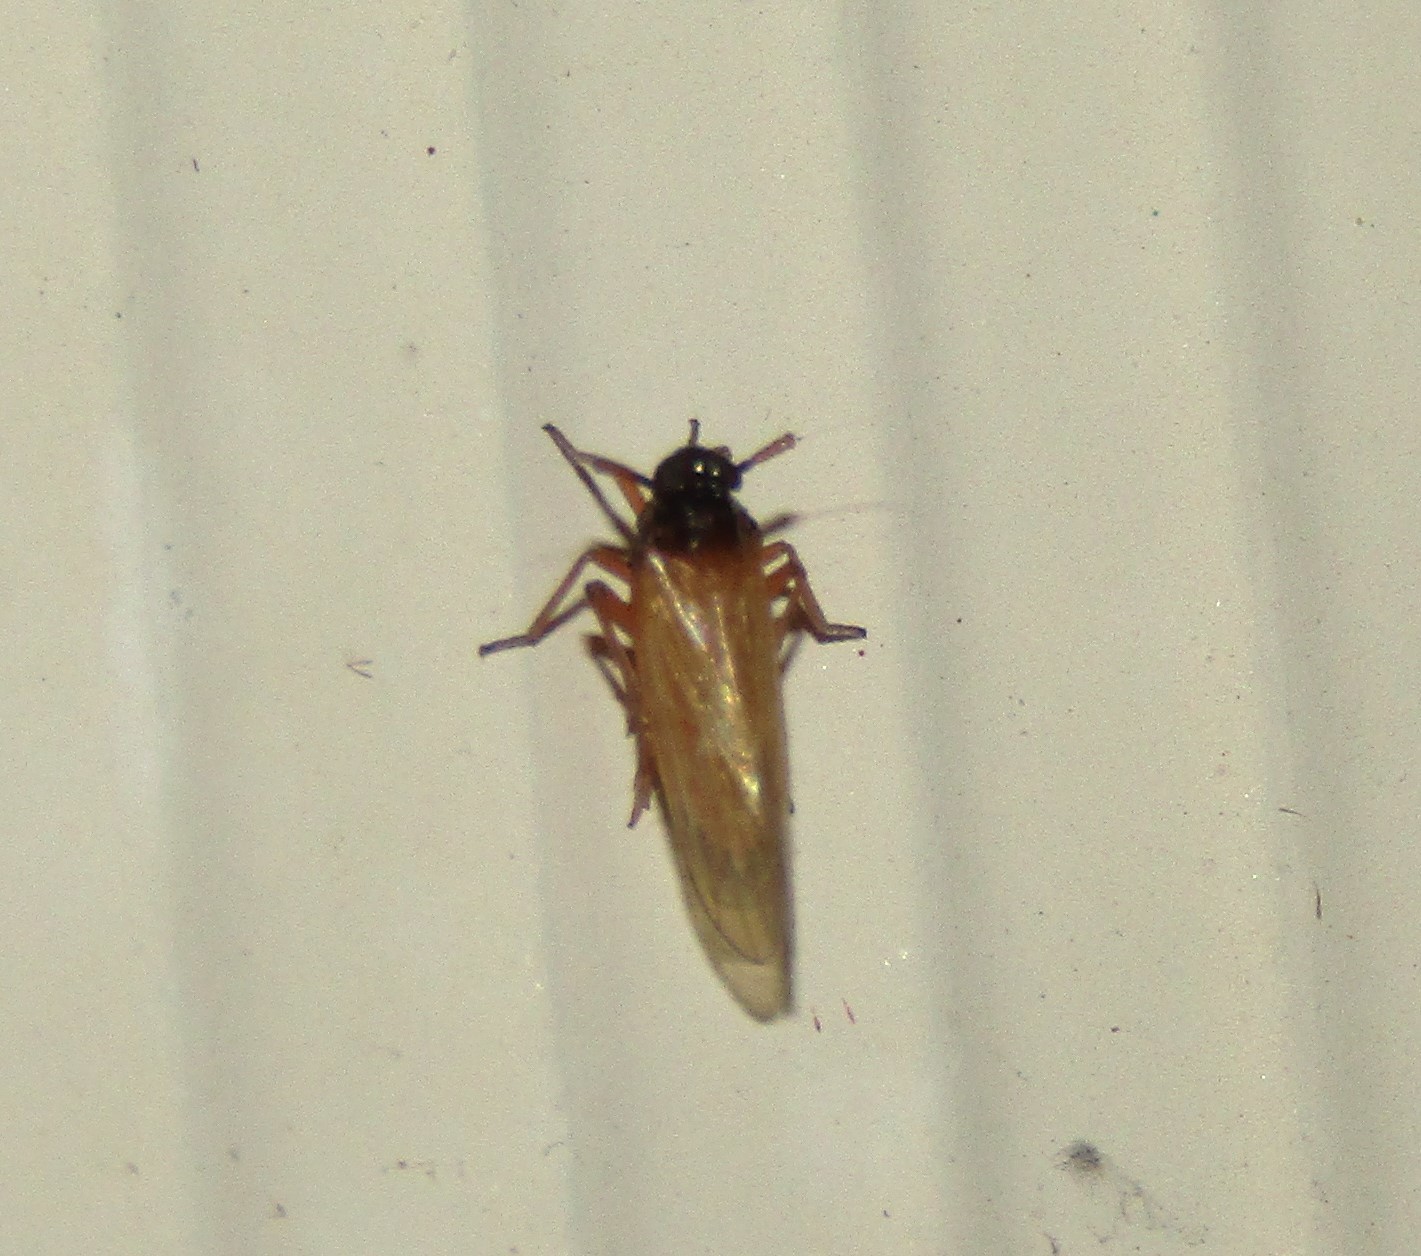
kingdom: Animalia
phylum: Arthropoda
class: Insecta
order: Hemiptera
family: Delphacidae
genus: Penepissonotus
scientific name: Penepissonotus bicolor
